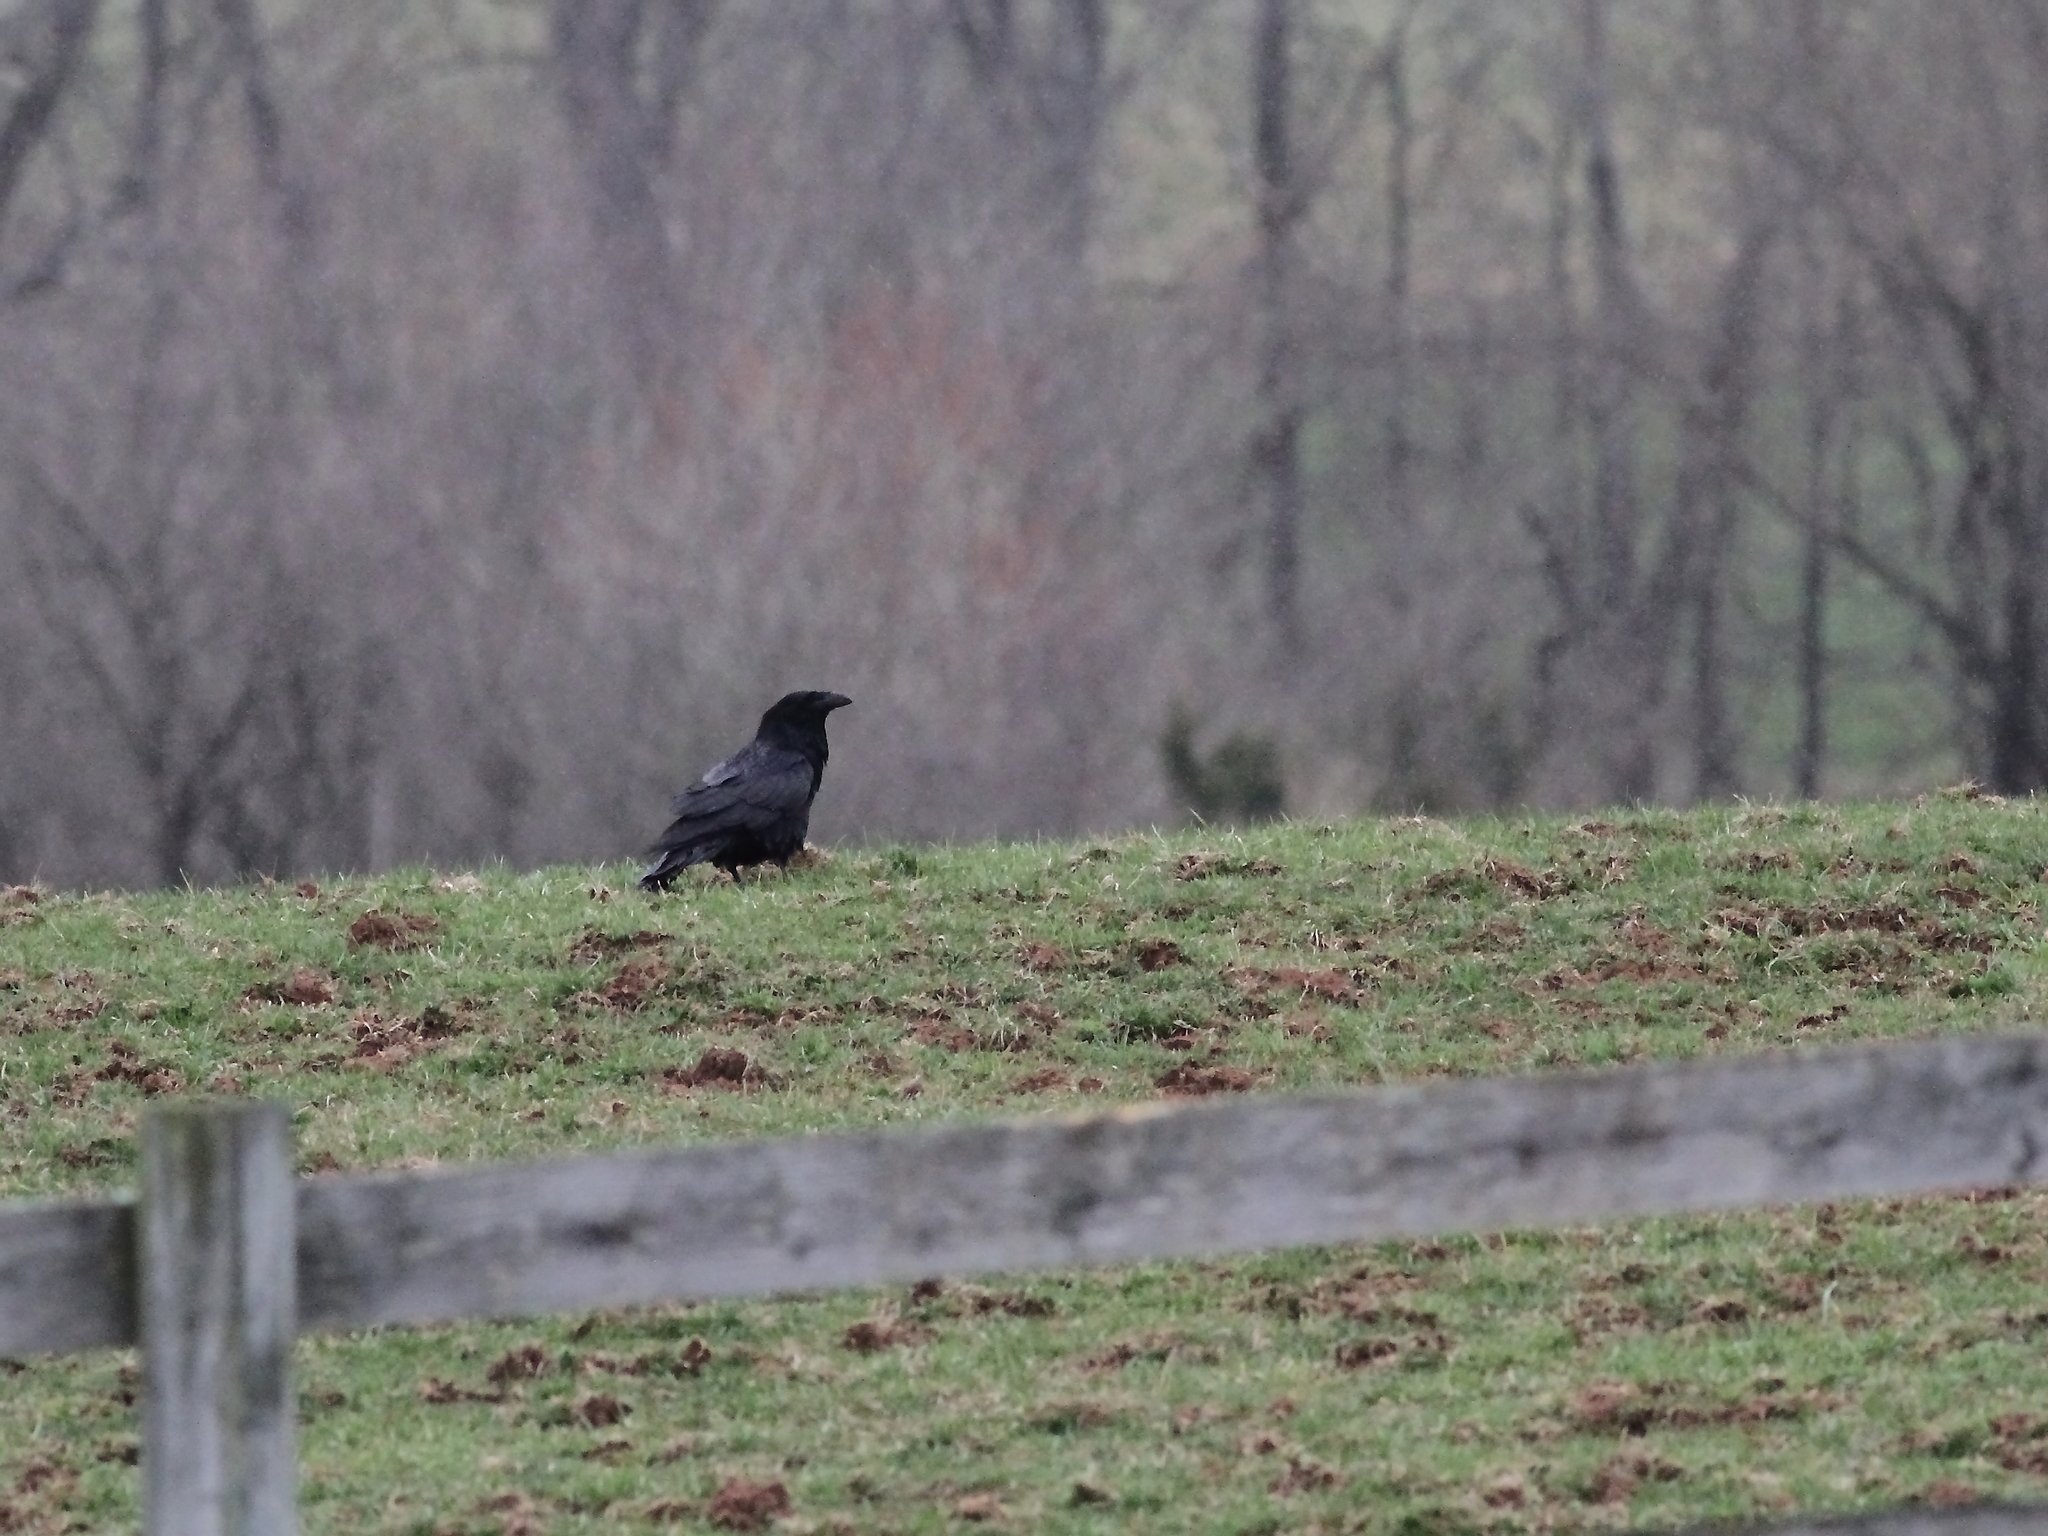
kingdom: Animalia
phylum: Chordata
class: Aves
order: Passeriformes
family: Corvidae
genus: Corvus
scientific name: Corvus corax
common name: Common raven
